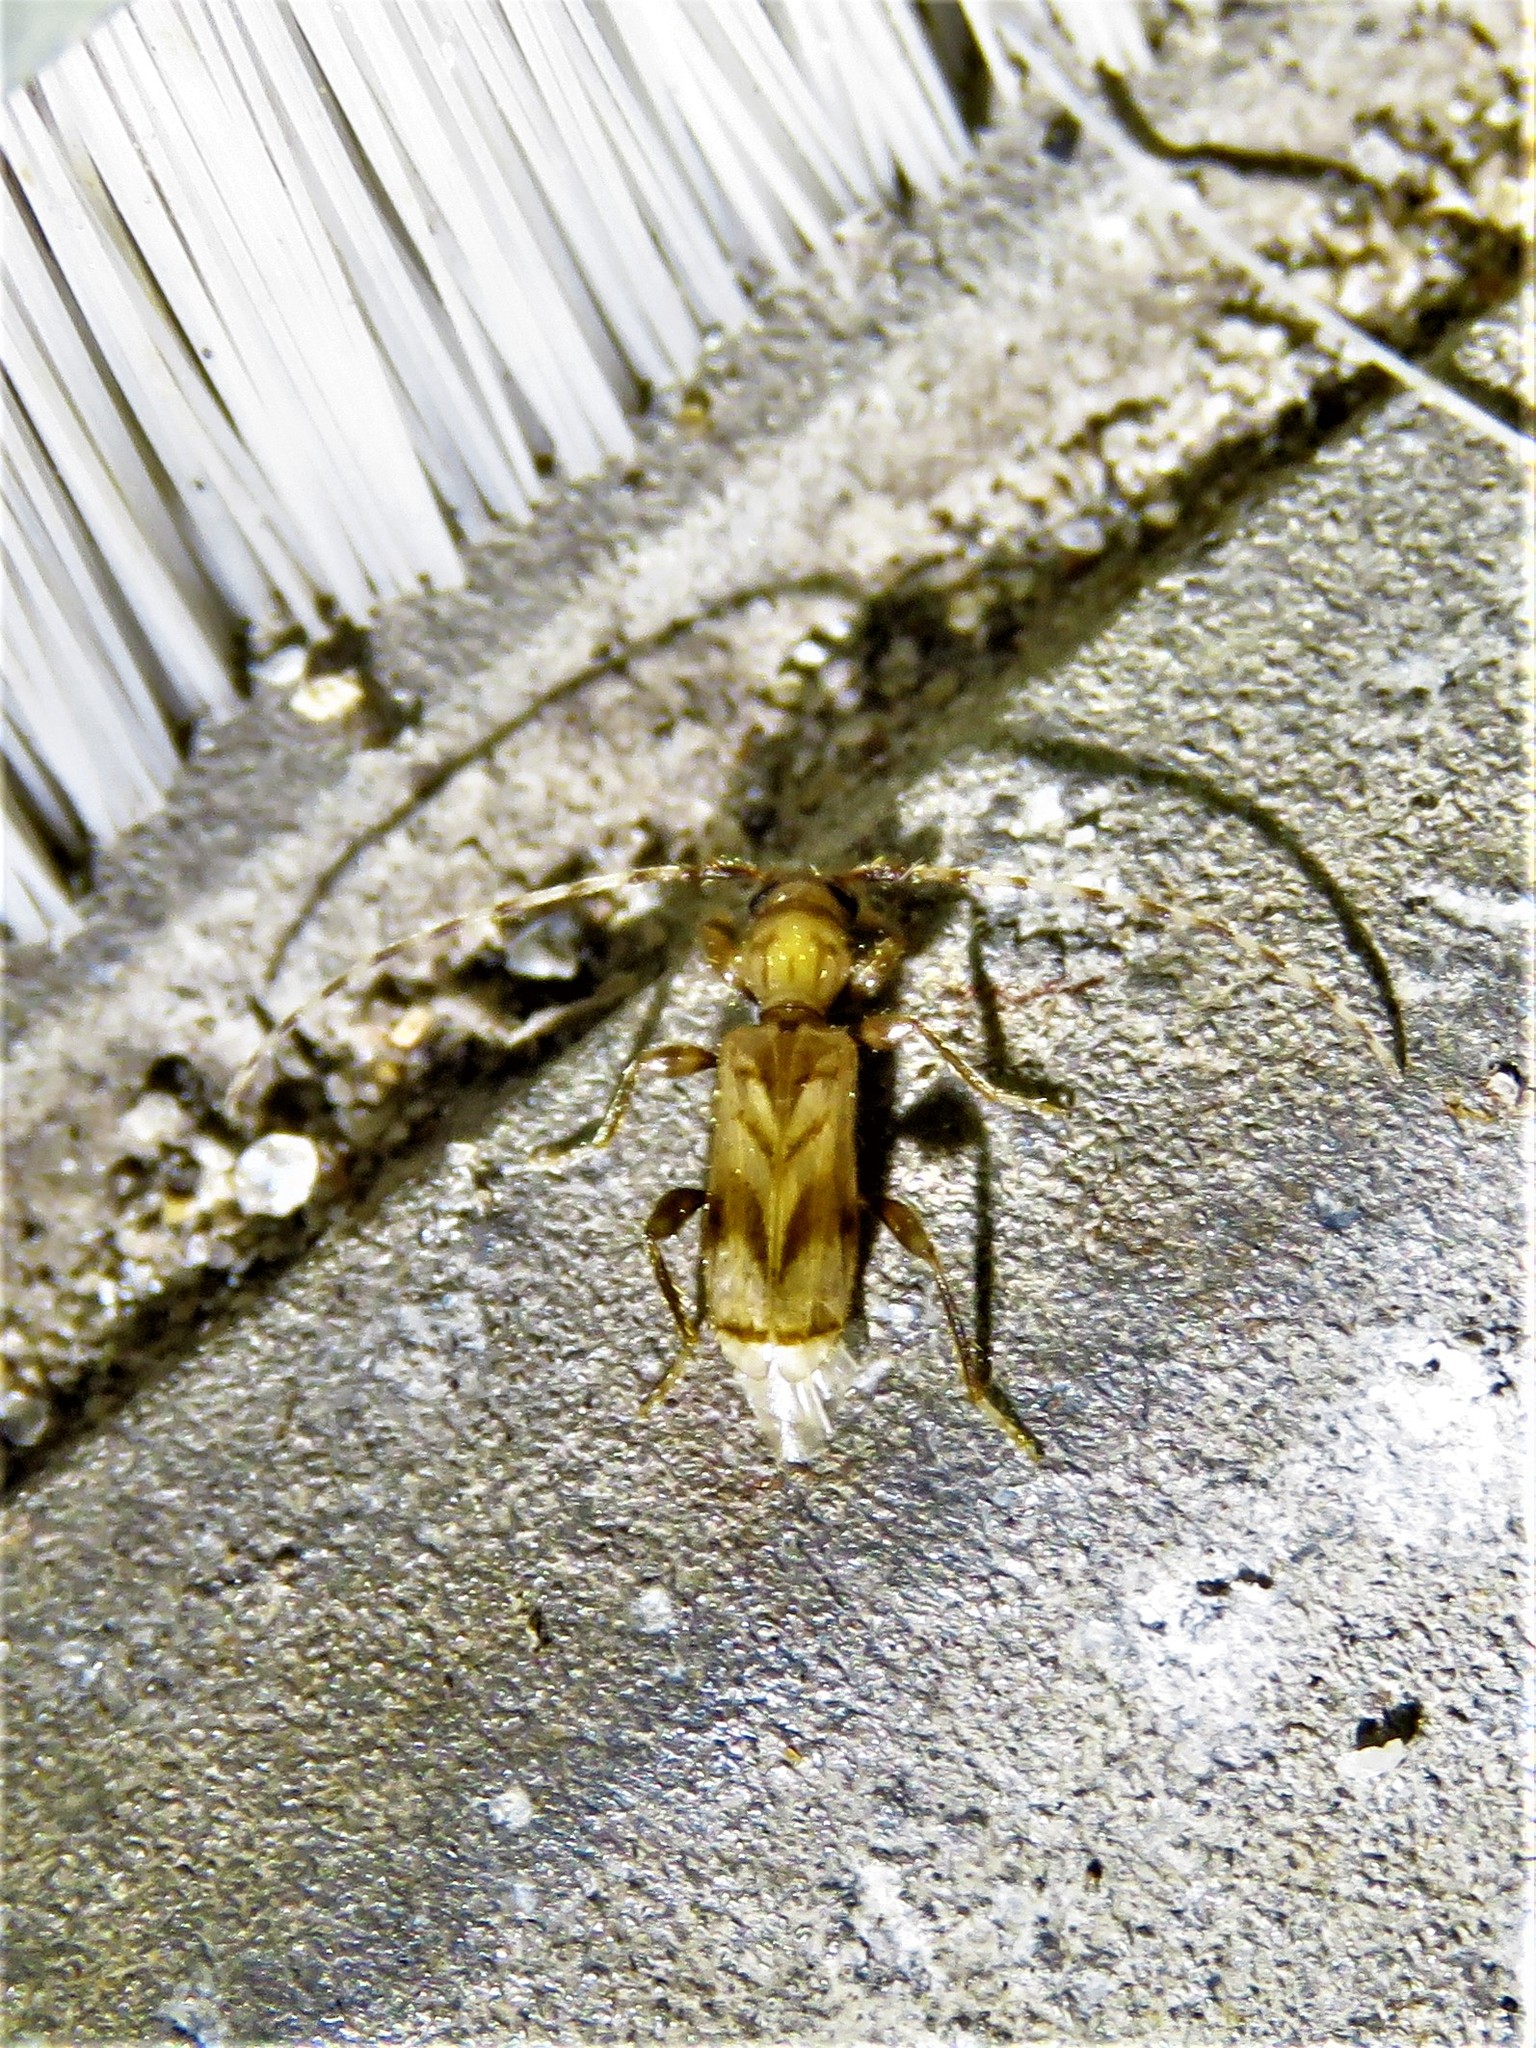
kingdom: Animalia
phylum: Arthropoda
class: Insecta
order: Coleoptera
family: Cerambycidae
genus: Obrium
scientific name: Obrium maculatum
